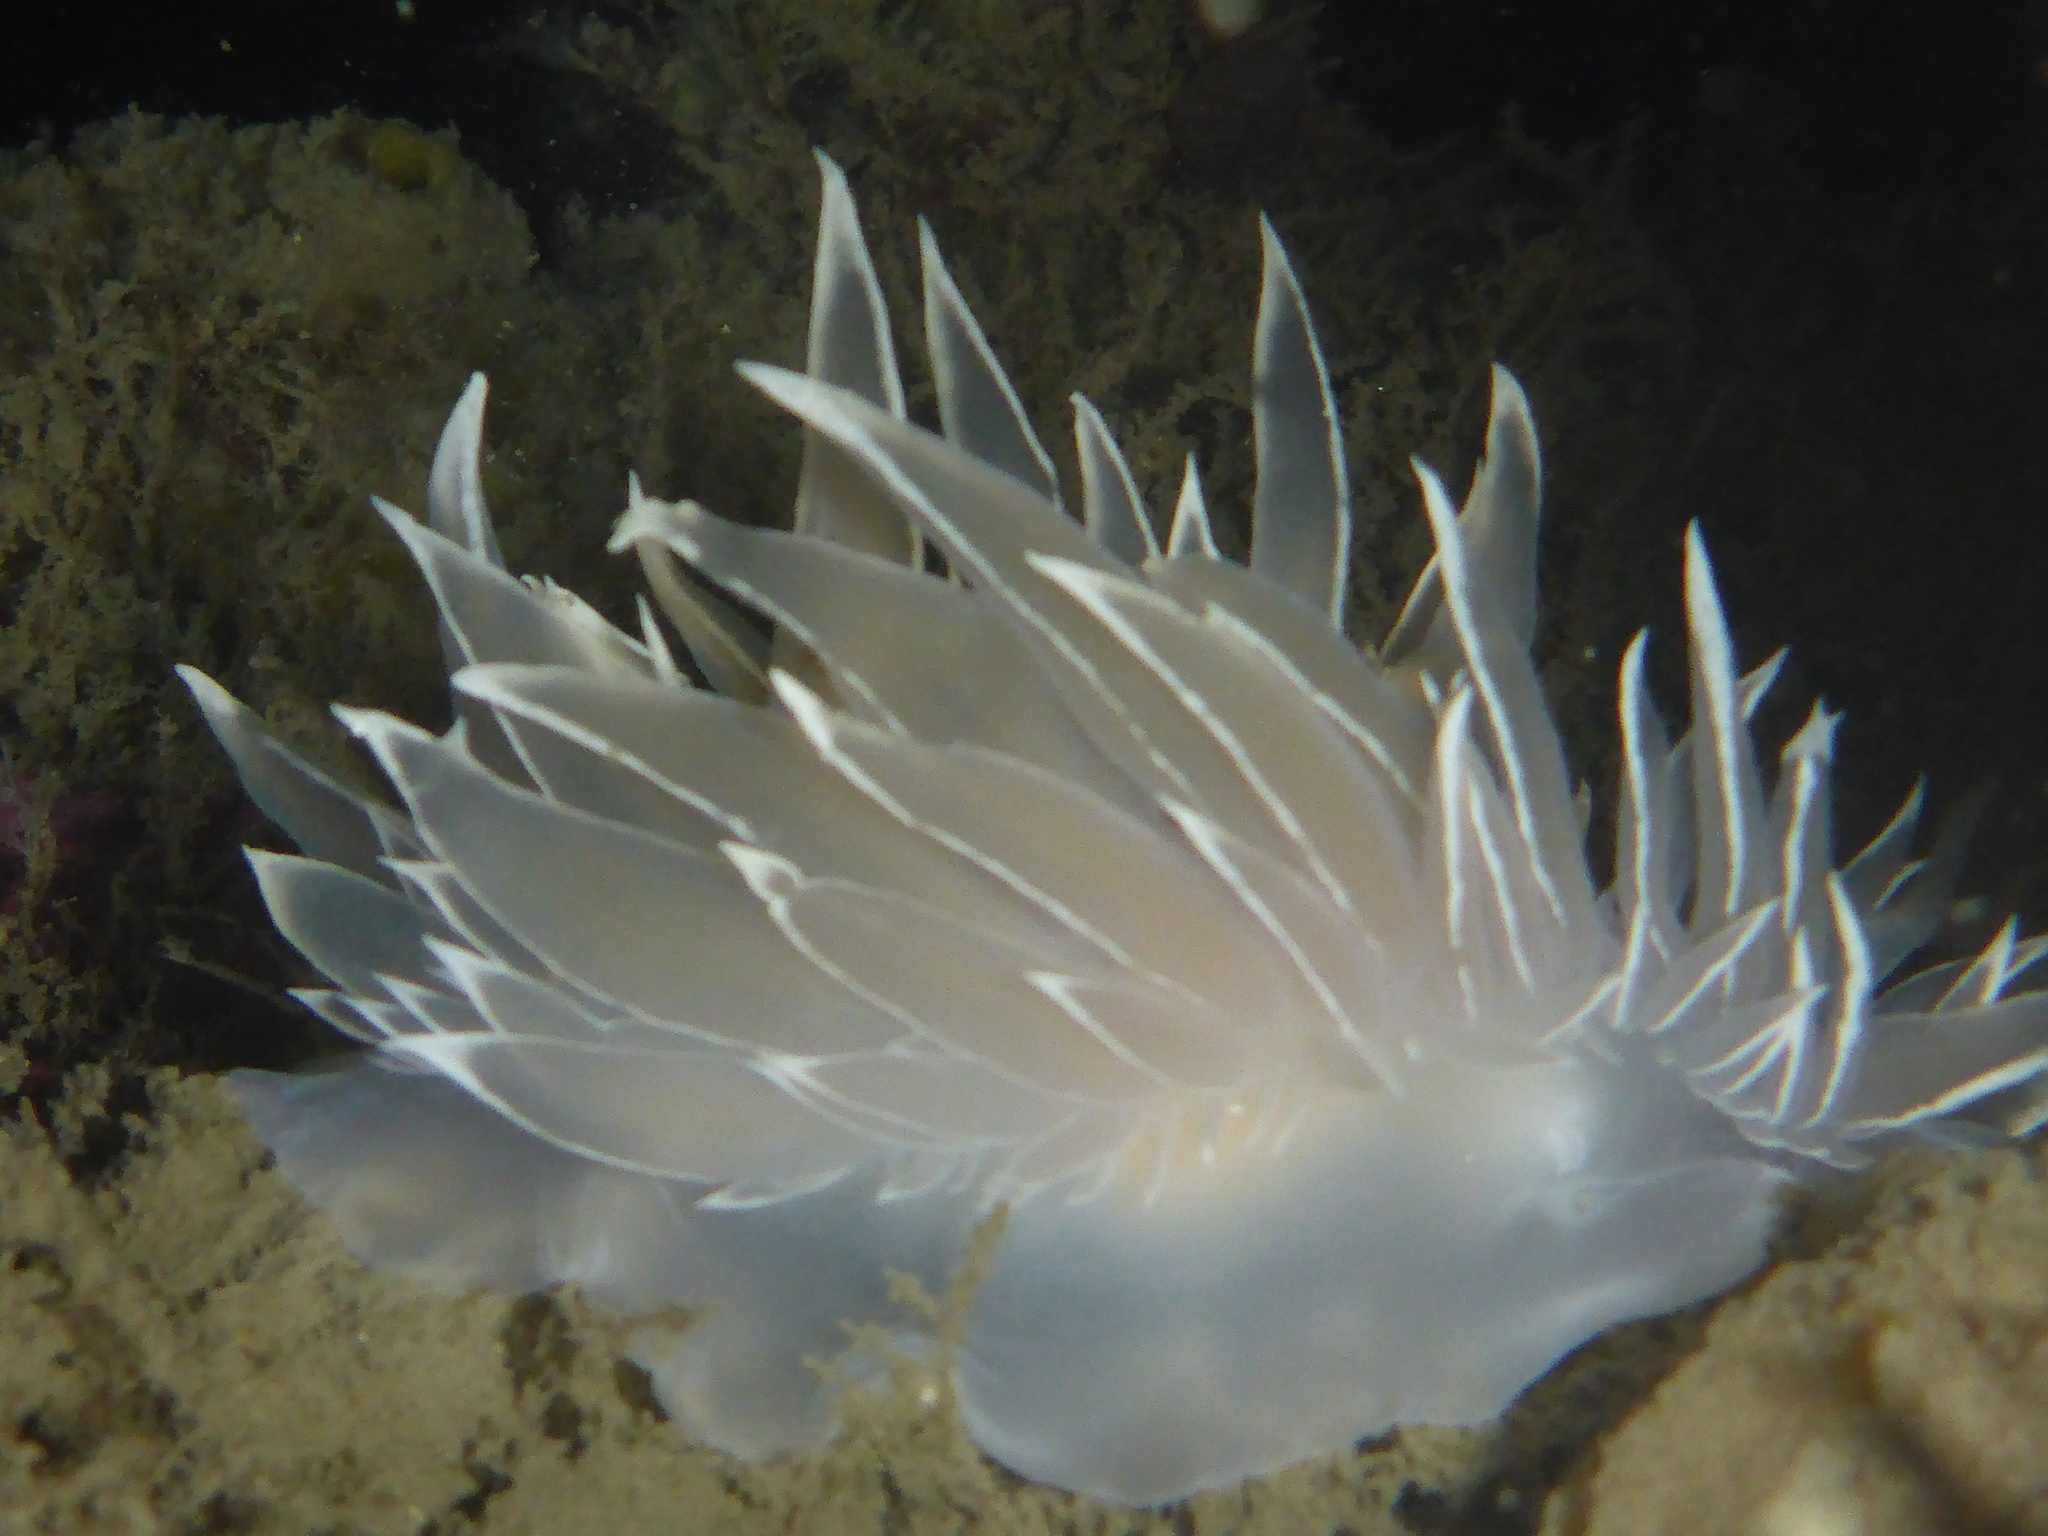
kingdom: Animalia
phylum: Mollusca
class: Gastropoda
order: Nudibranchia
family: Dironidae
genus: Dirona
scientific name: Dirona albolineata
